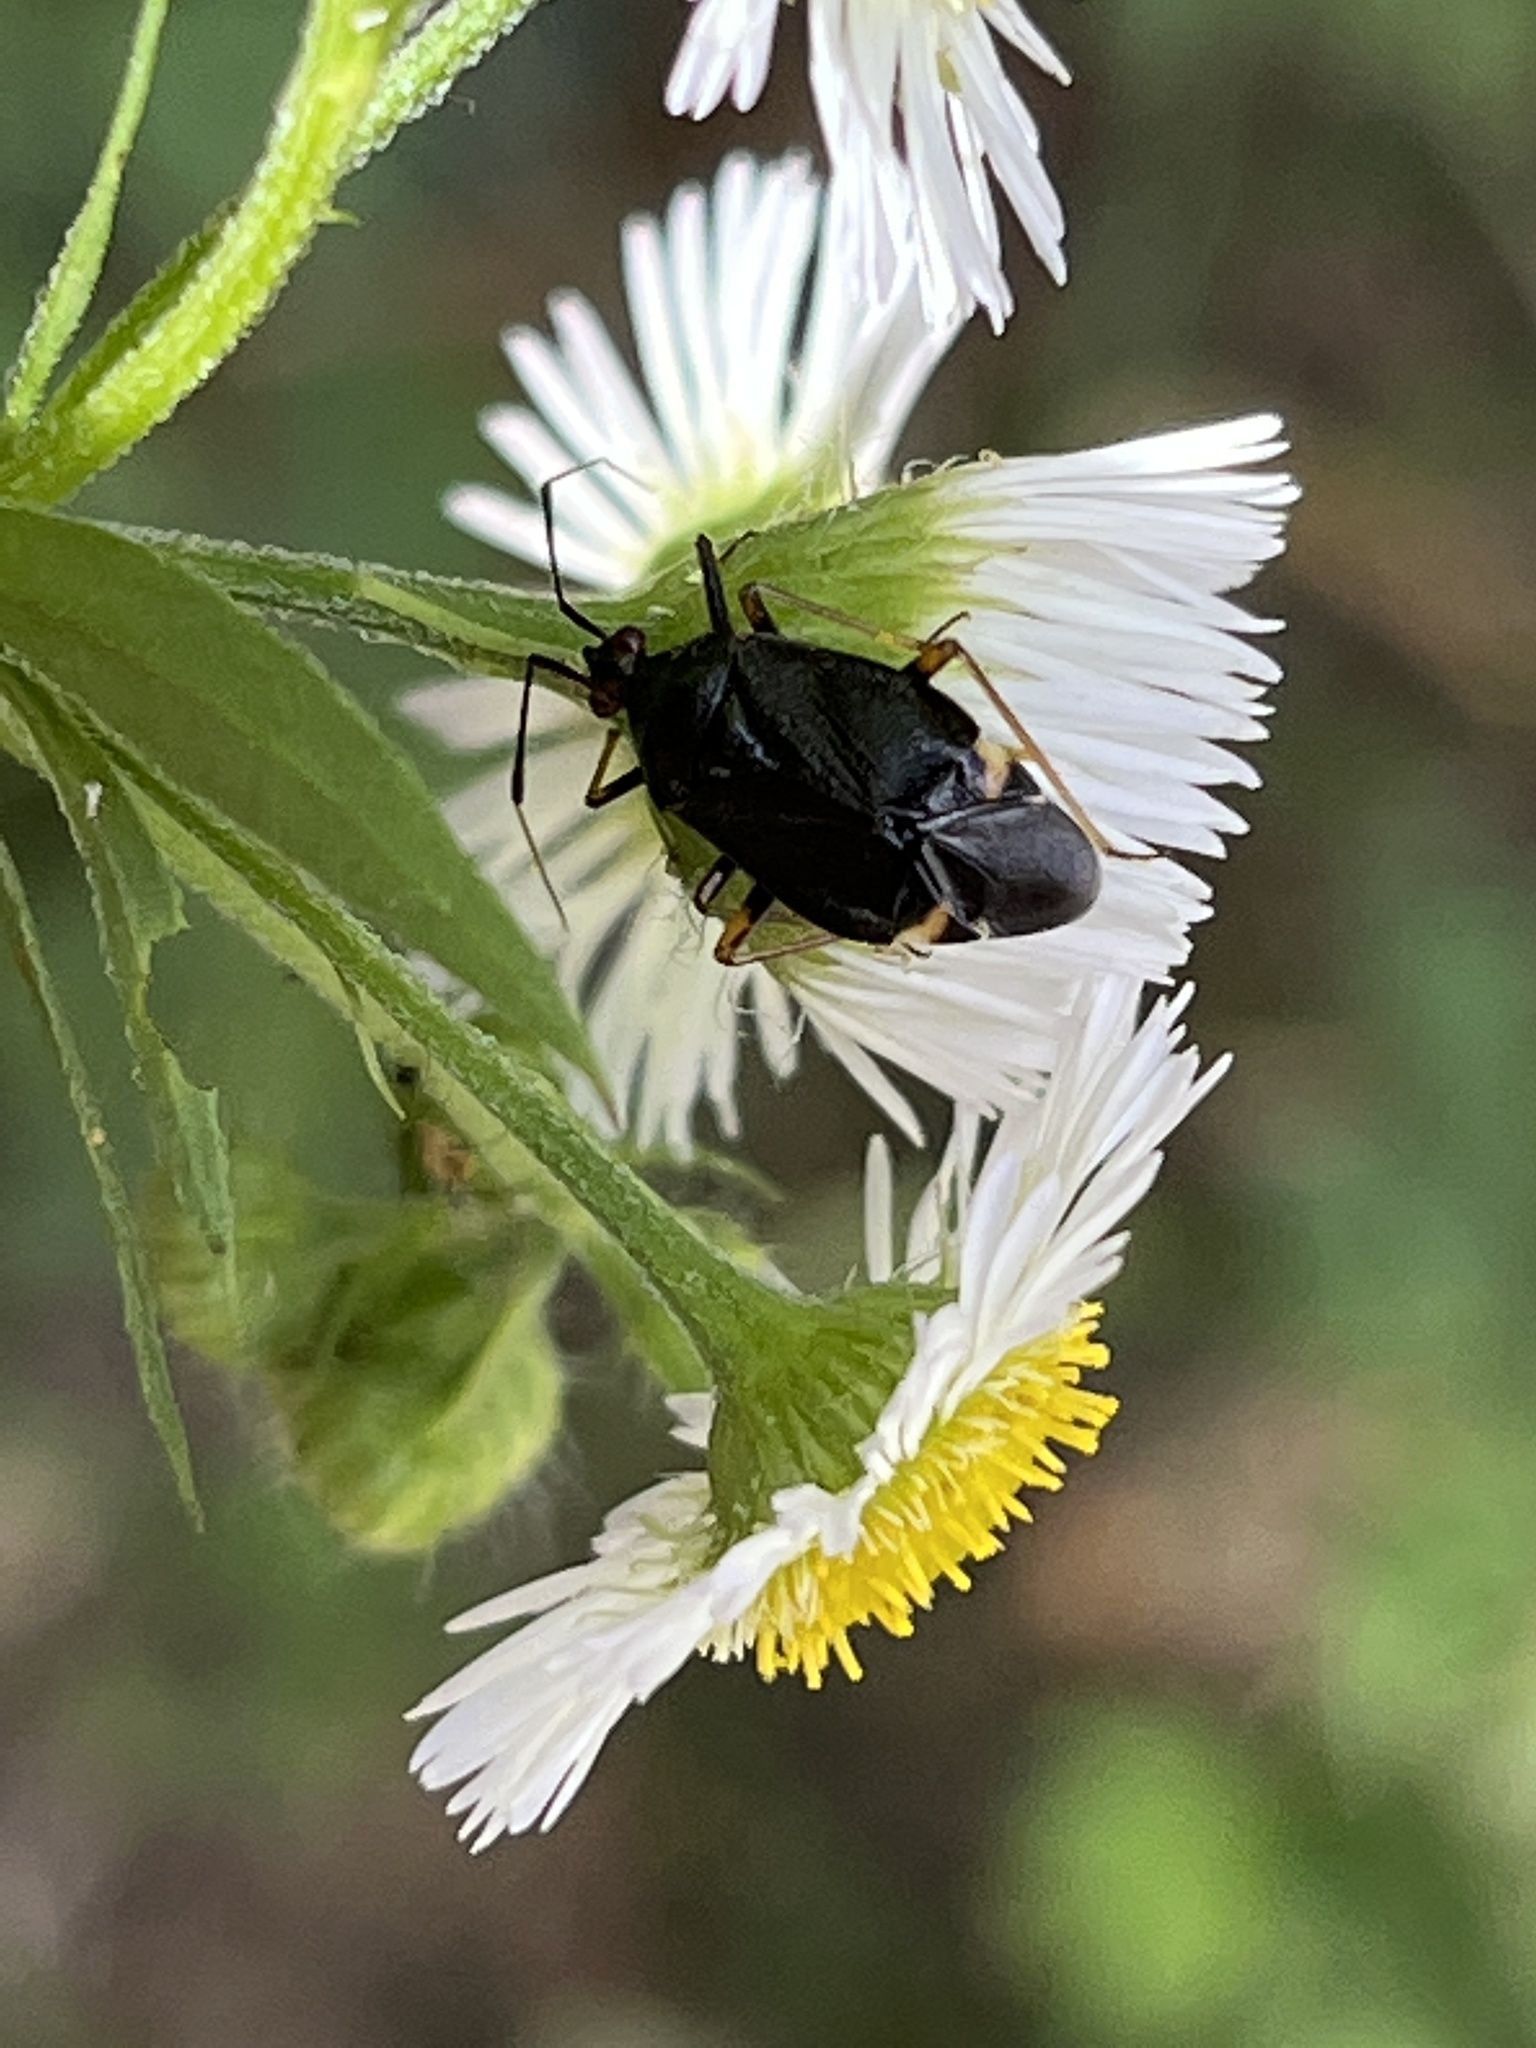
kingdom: Animalia
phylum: Arthropoda
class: Insecta
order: Hemiptera
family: Miridae
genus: Deraeocoris
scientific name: Deraeocoris ater
